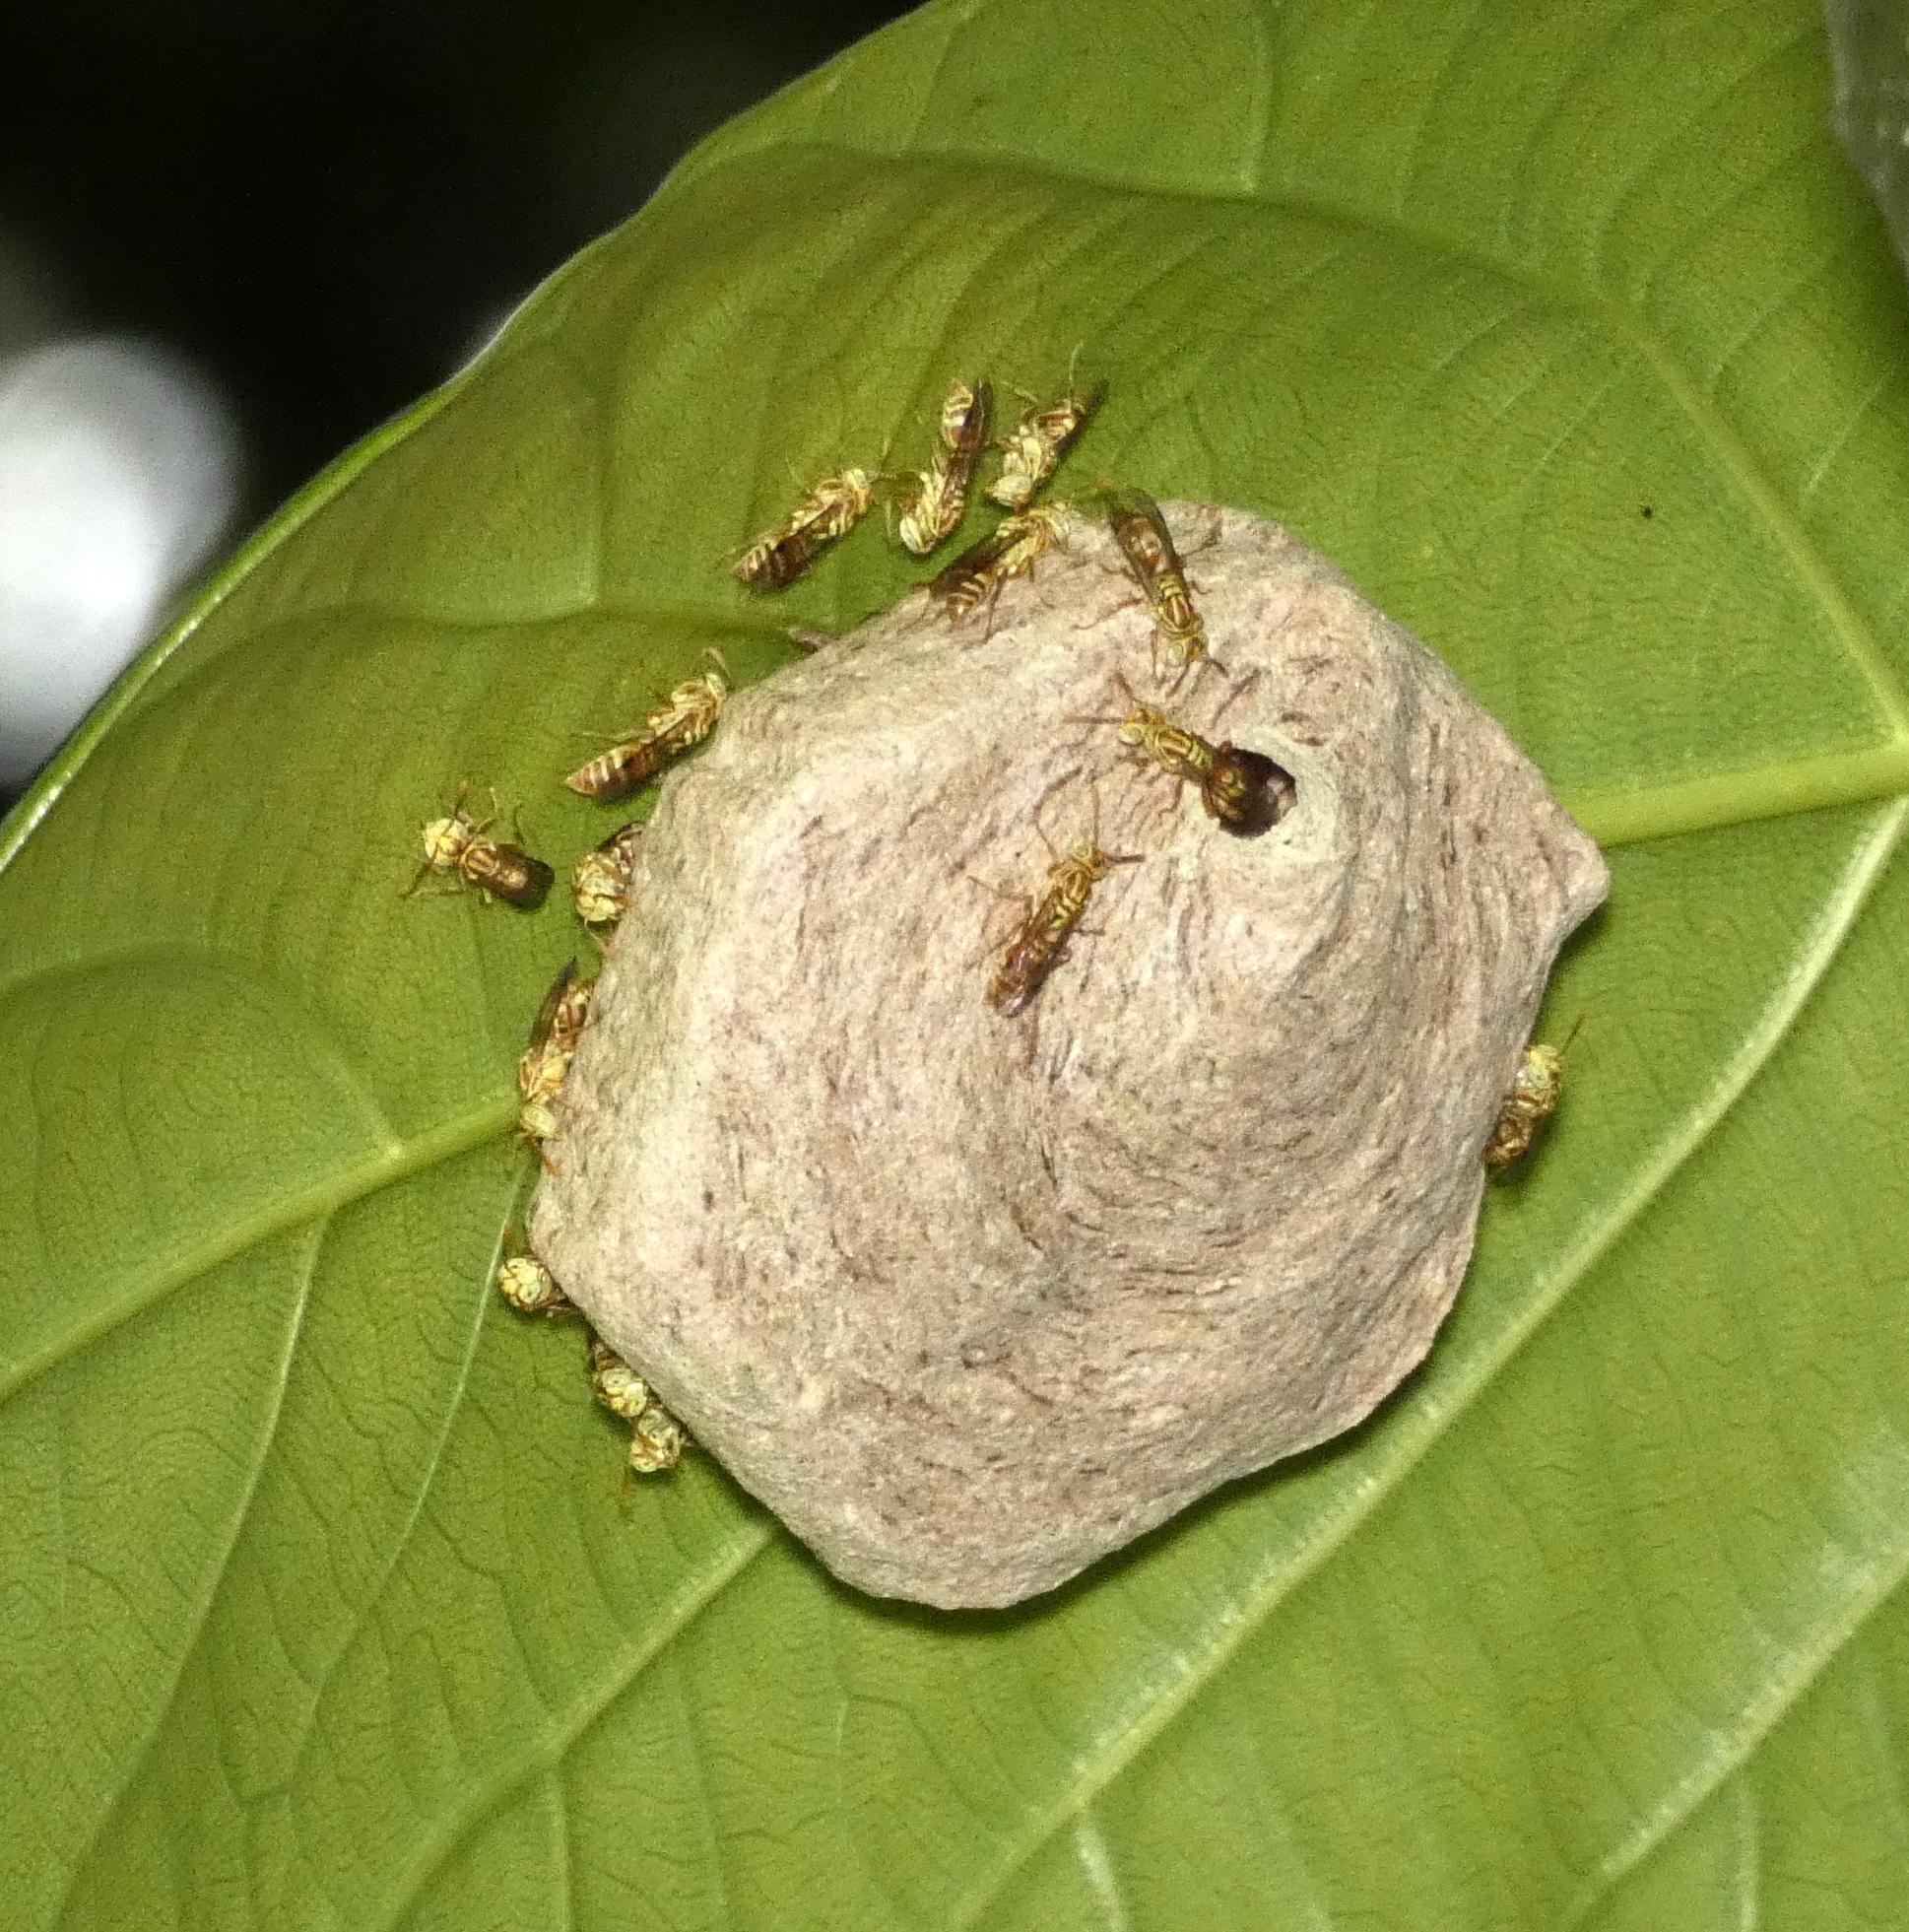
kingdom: Animalia
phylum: Arthropoda
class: Insecta
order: Hymenoptera
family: Vespidae
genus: Protopolybia
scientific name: Protopolybia potiguara
